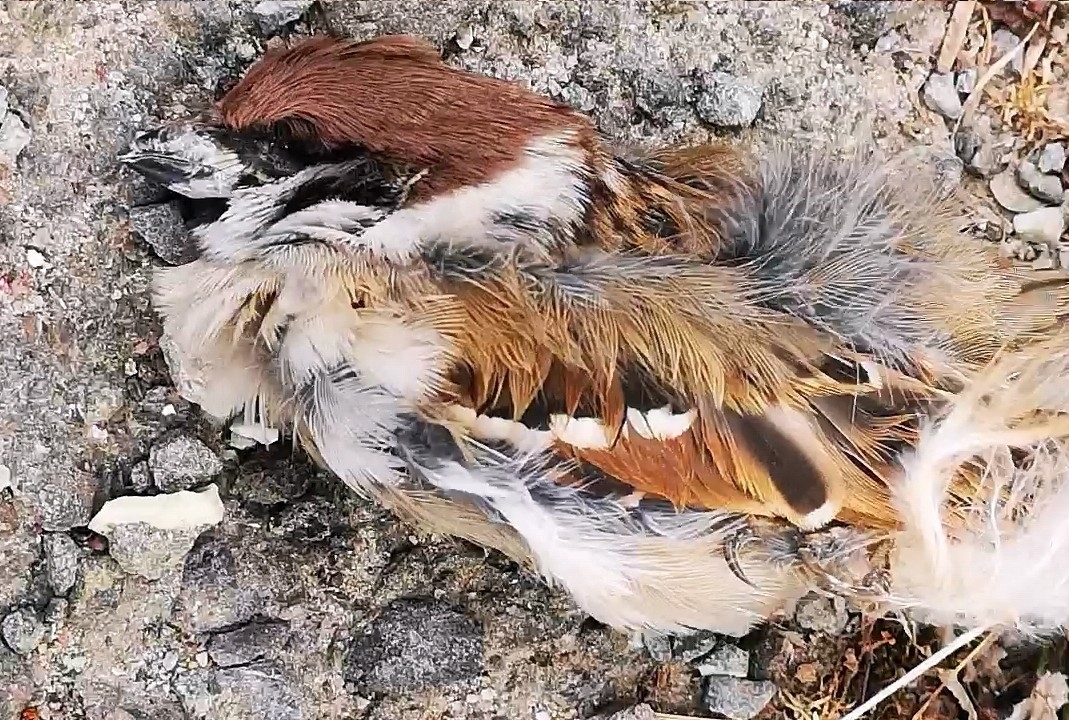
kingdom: Animalia
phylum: Chordata
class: Aves
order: Passeriformes
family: Passeridae
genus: Passer
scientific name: Passer montanus
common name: Eurasian tree sparrow
